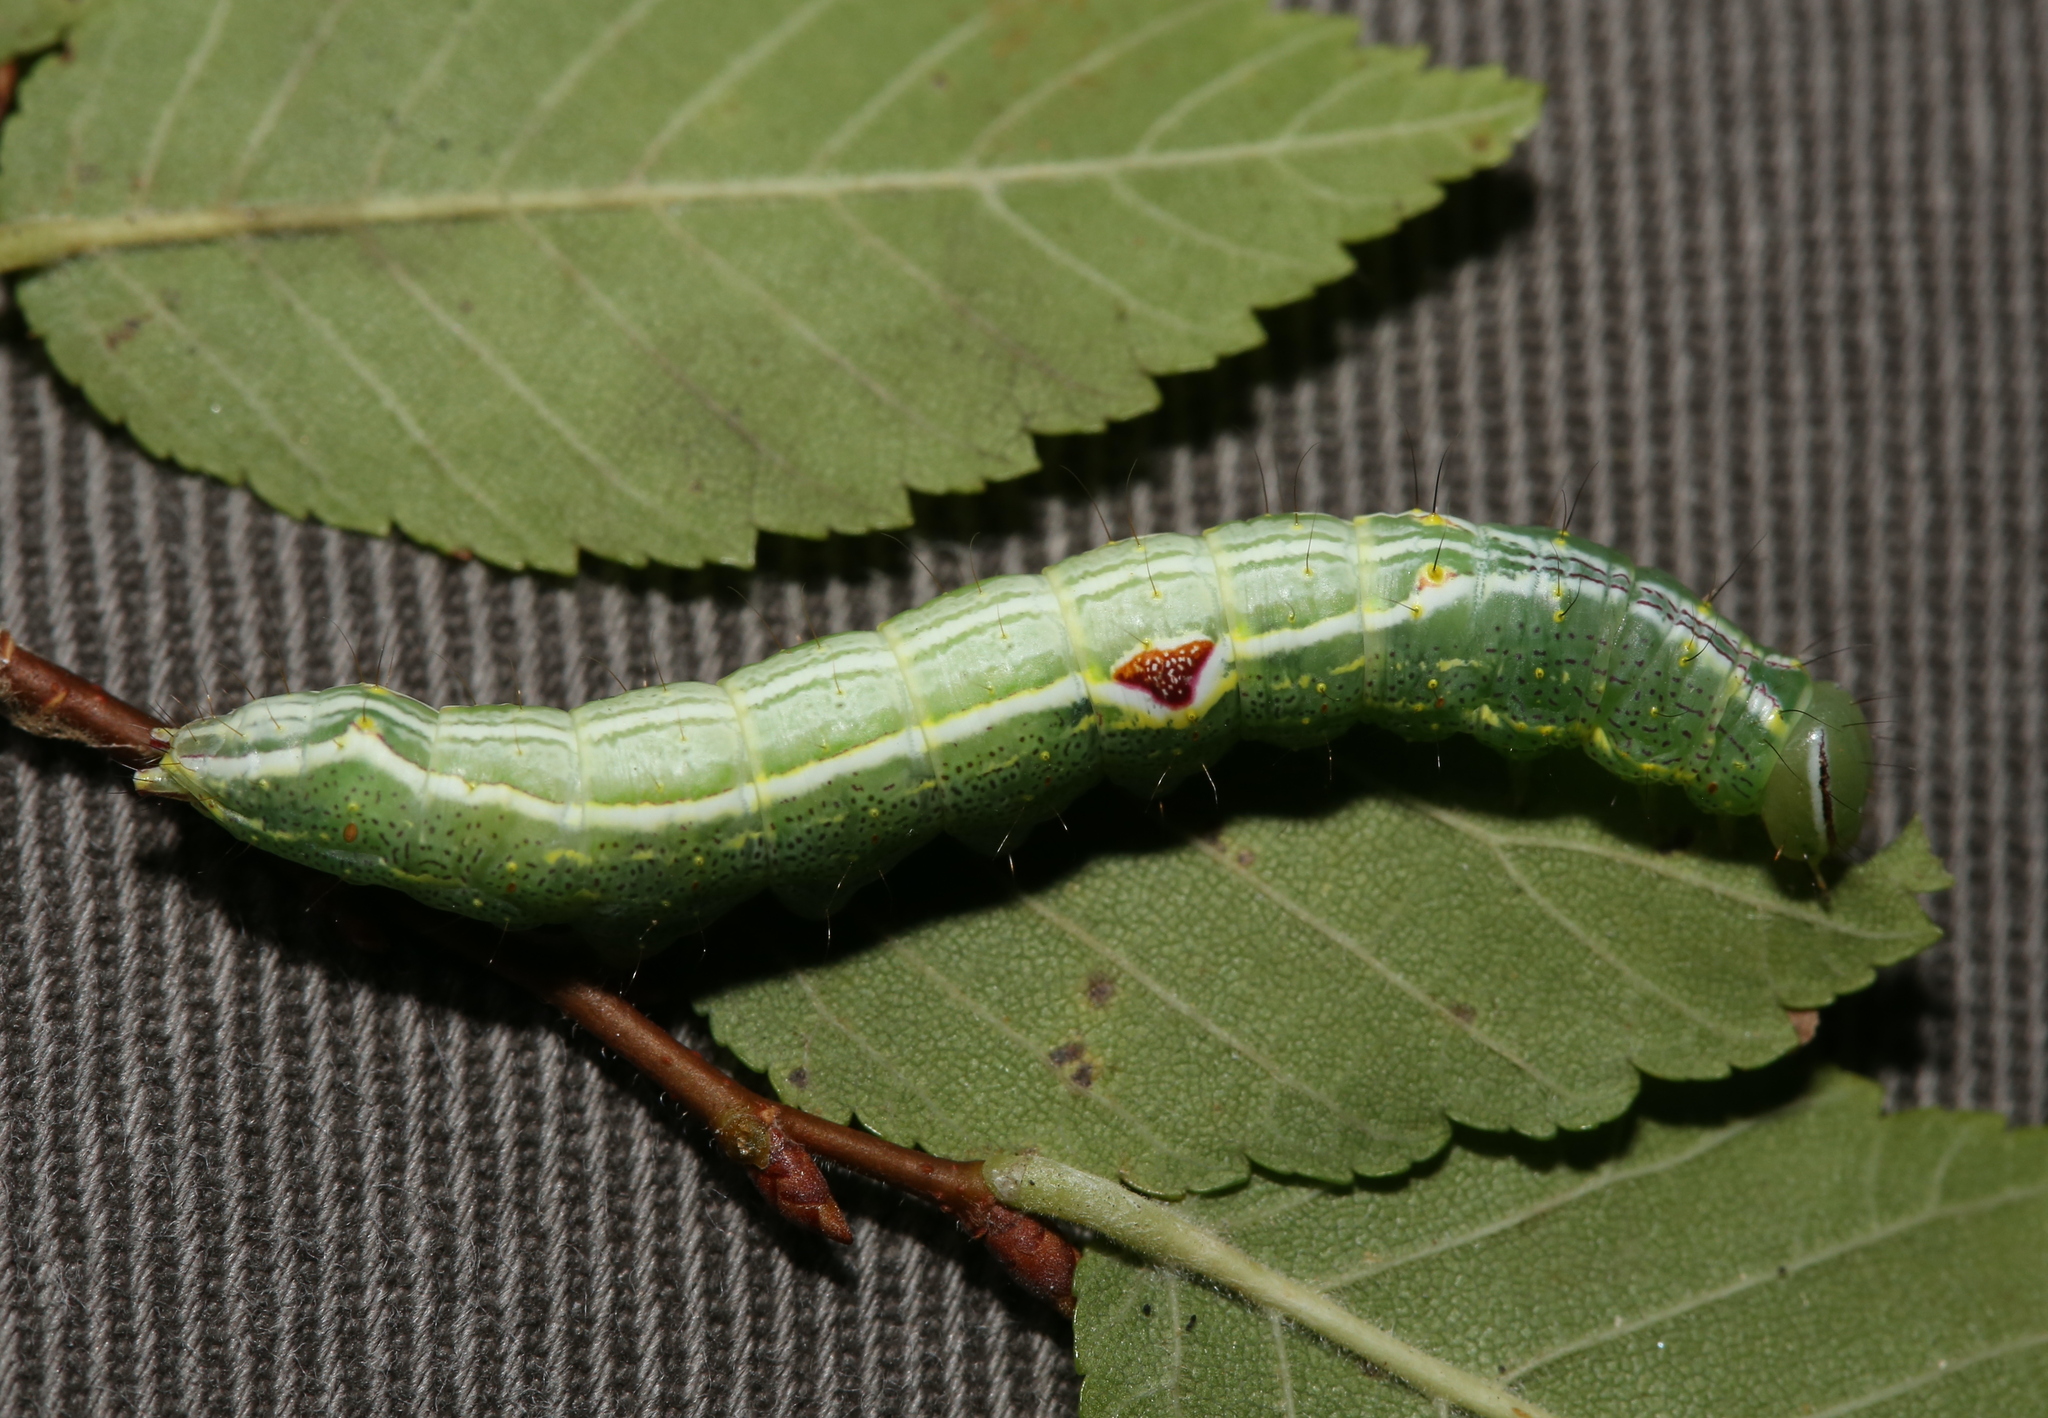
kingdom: Animalia
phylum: Arthropoda
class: Insecta
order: Lepidoptera
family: Notodontidae
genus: Lochmaeus
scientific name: Lochmaeus bilineata
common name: Double-lined prominent
